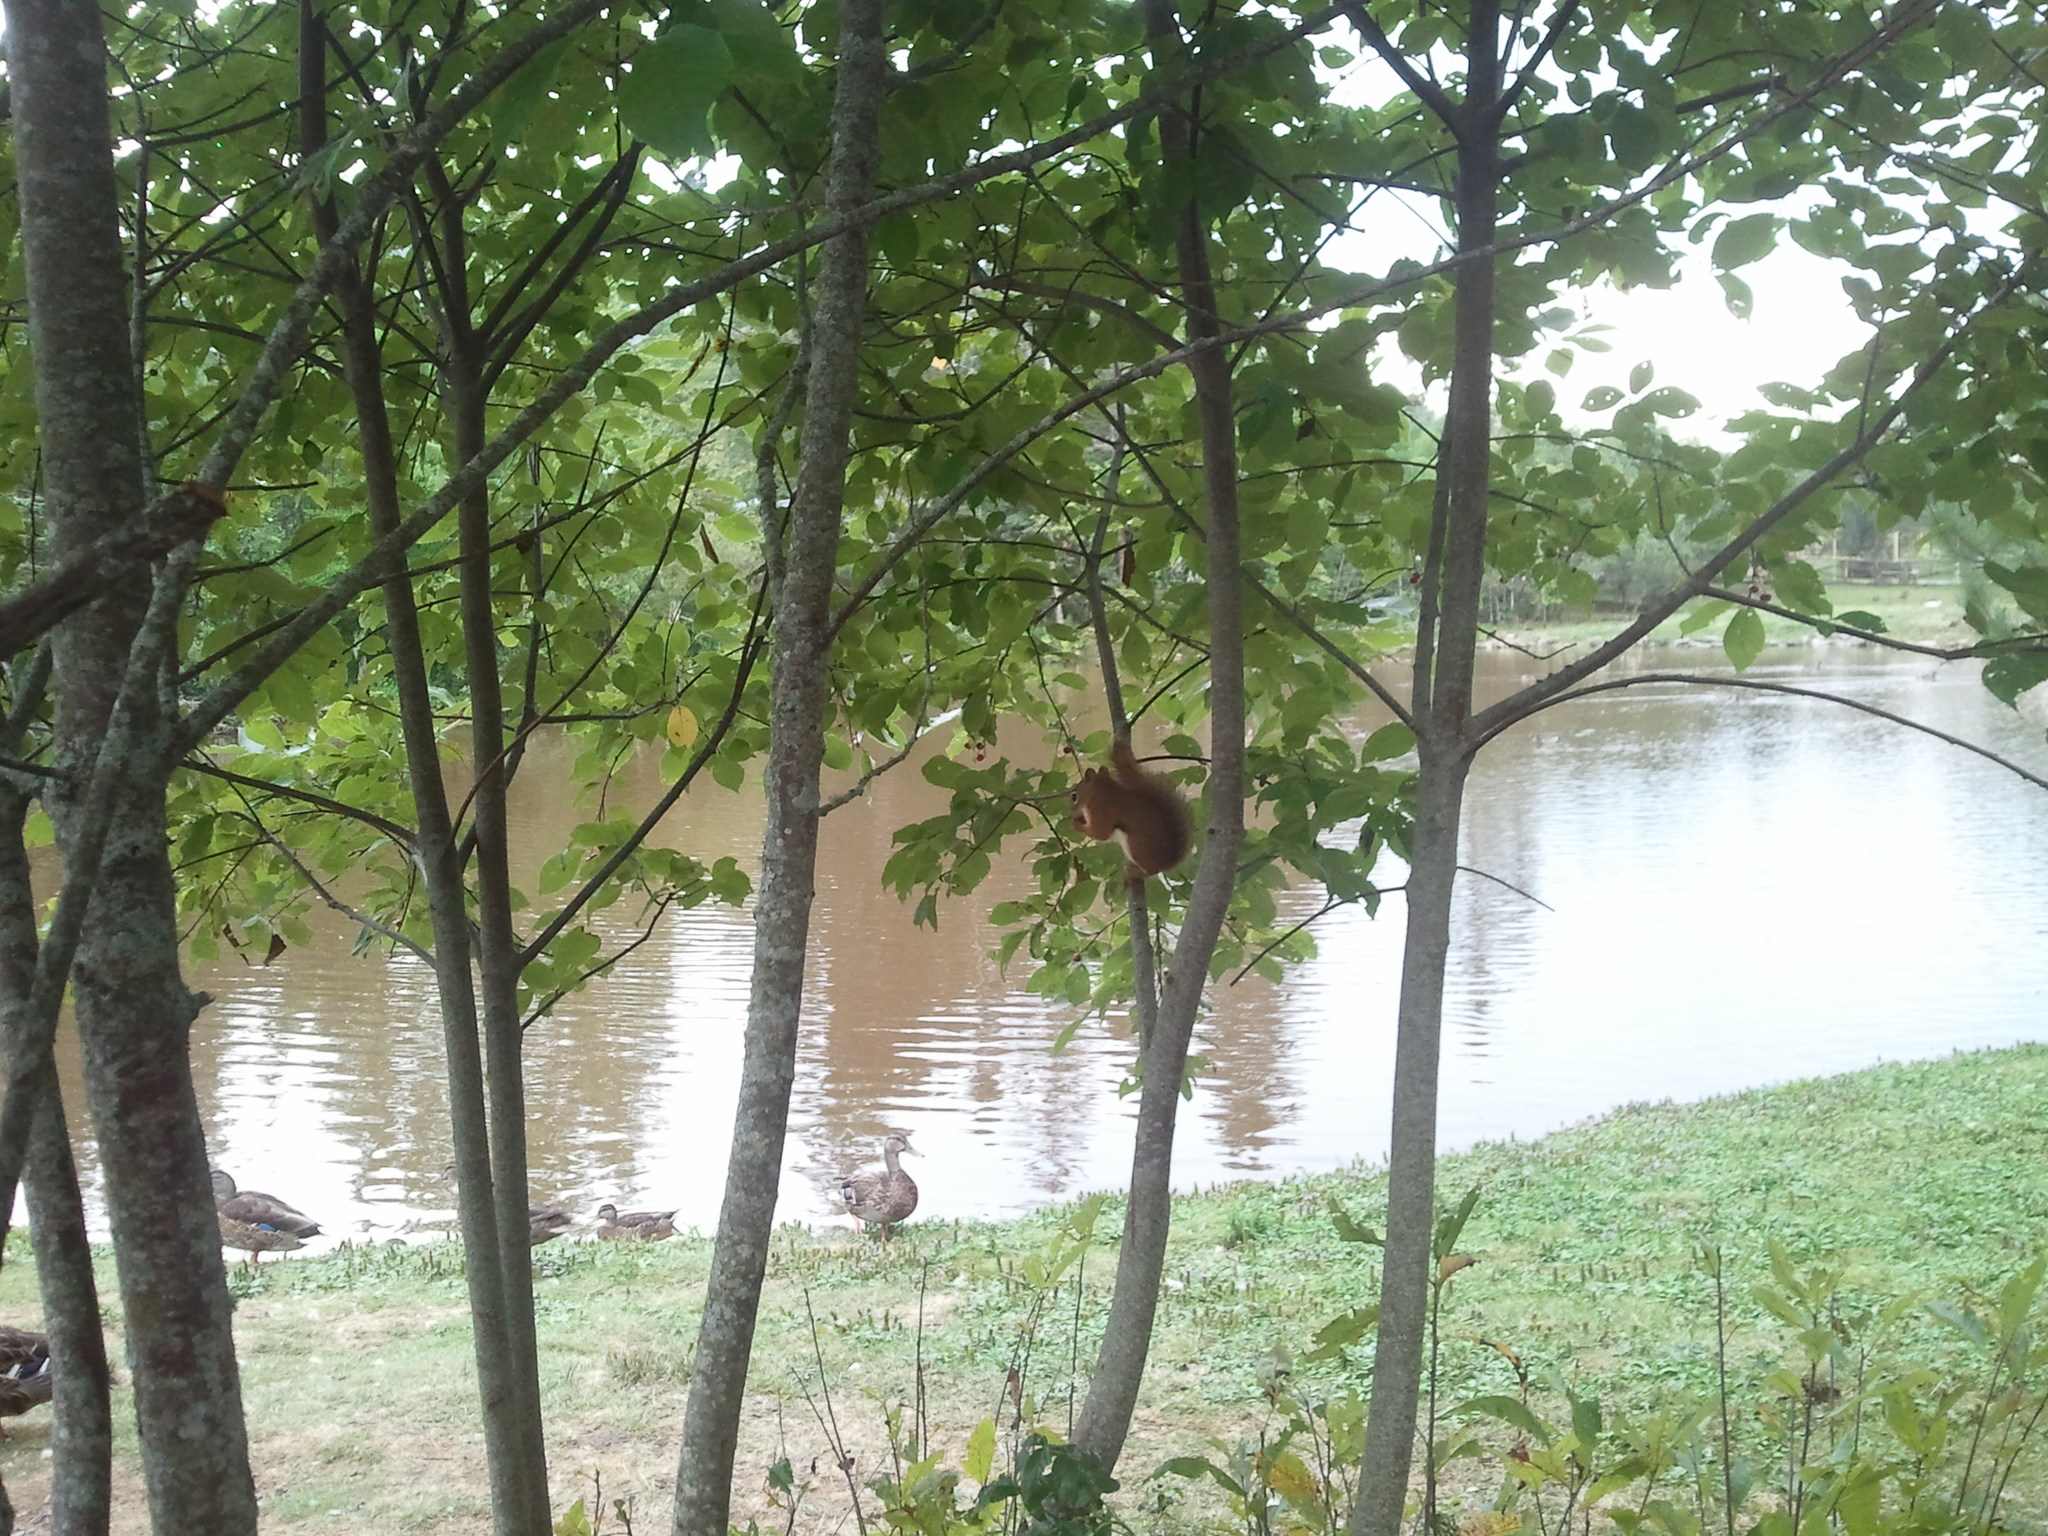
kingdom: Animalia
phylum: Chordata
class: Mammalia
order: Rodentia
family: Sciuridae
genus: Tamiasciurus
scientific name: Tamiasciurus hudsonicus
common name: Red squirrel
